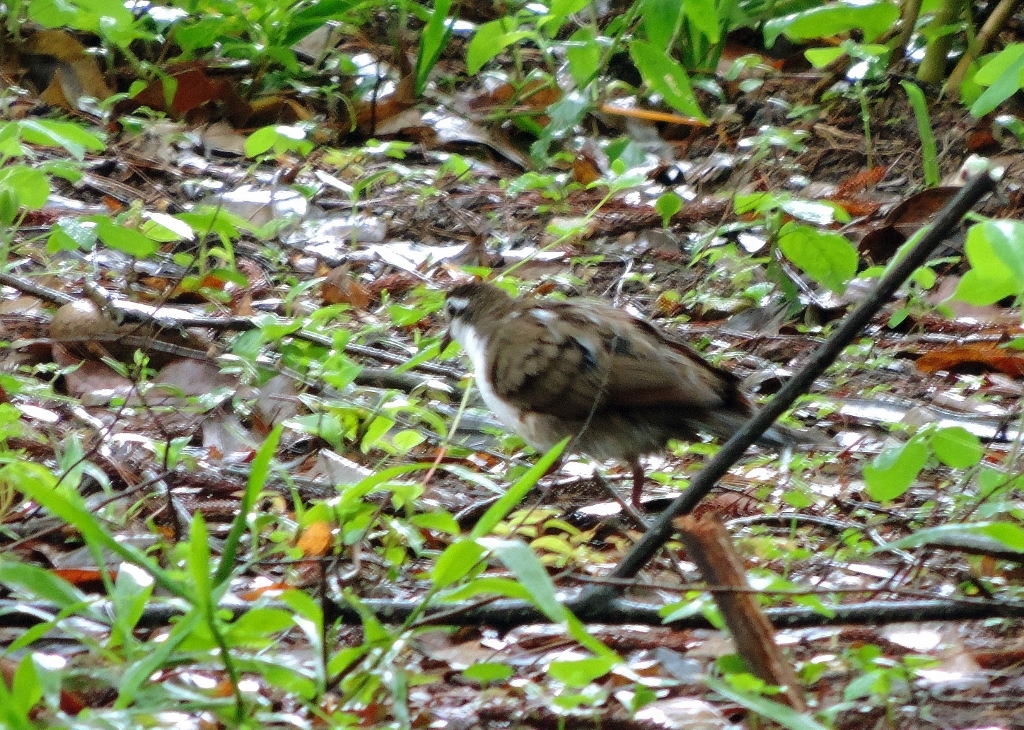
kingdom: Animalia
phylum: Chordata
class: Aves
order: Columbiformes
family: Columbidae
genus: Turtur
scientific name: Turtur tympanistria
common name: Tambourine dove
